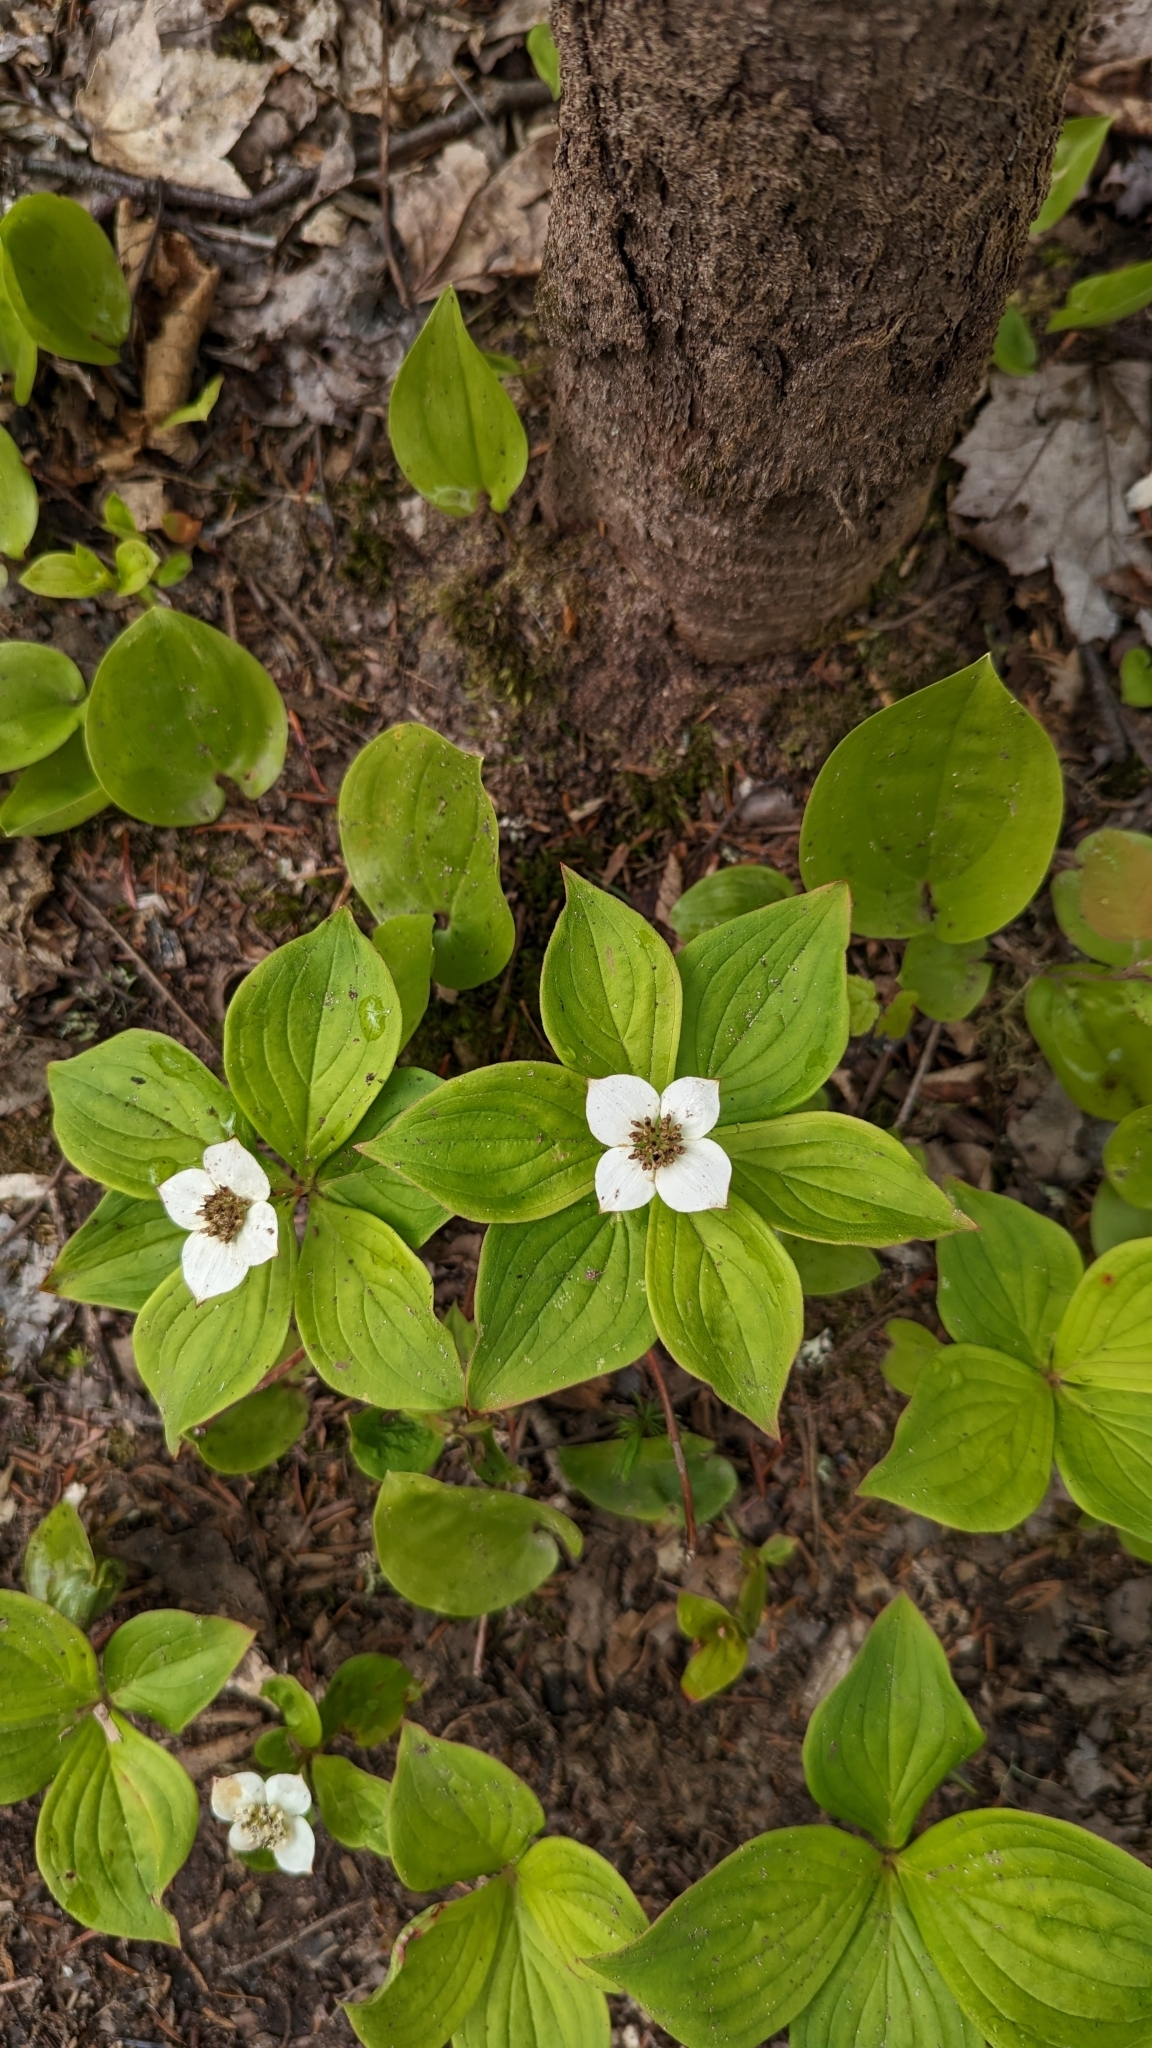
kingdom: Plantae
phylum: Tracheophyta
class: Magnoliopsida
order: Cornales
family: Cornaceae
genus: Cornus
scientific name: Cornus canadensis
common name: Creeping dogwood
